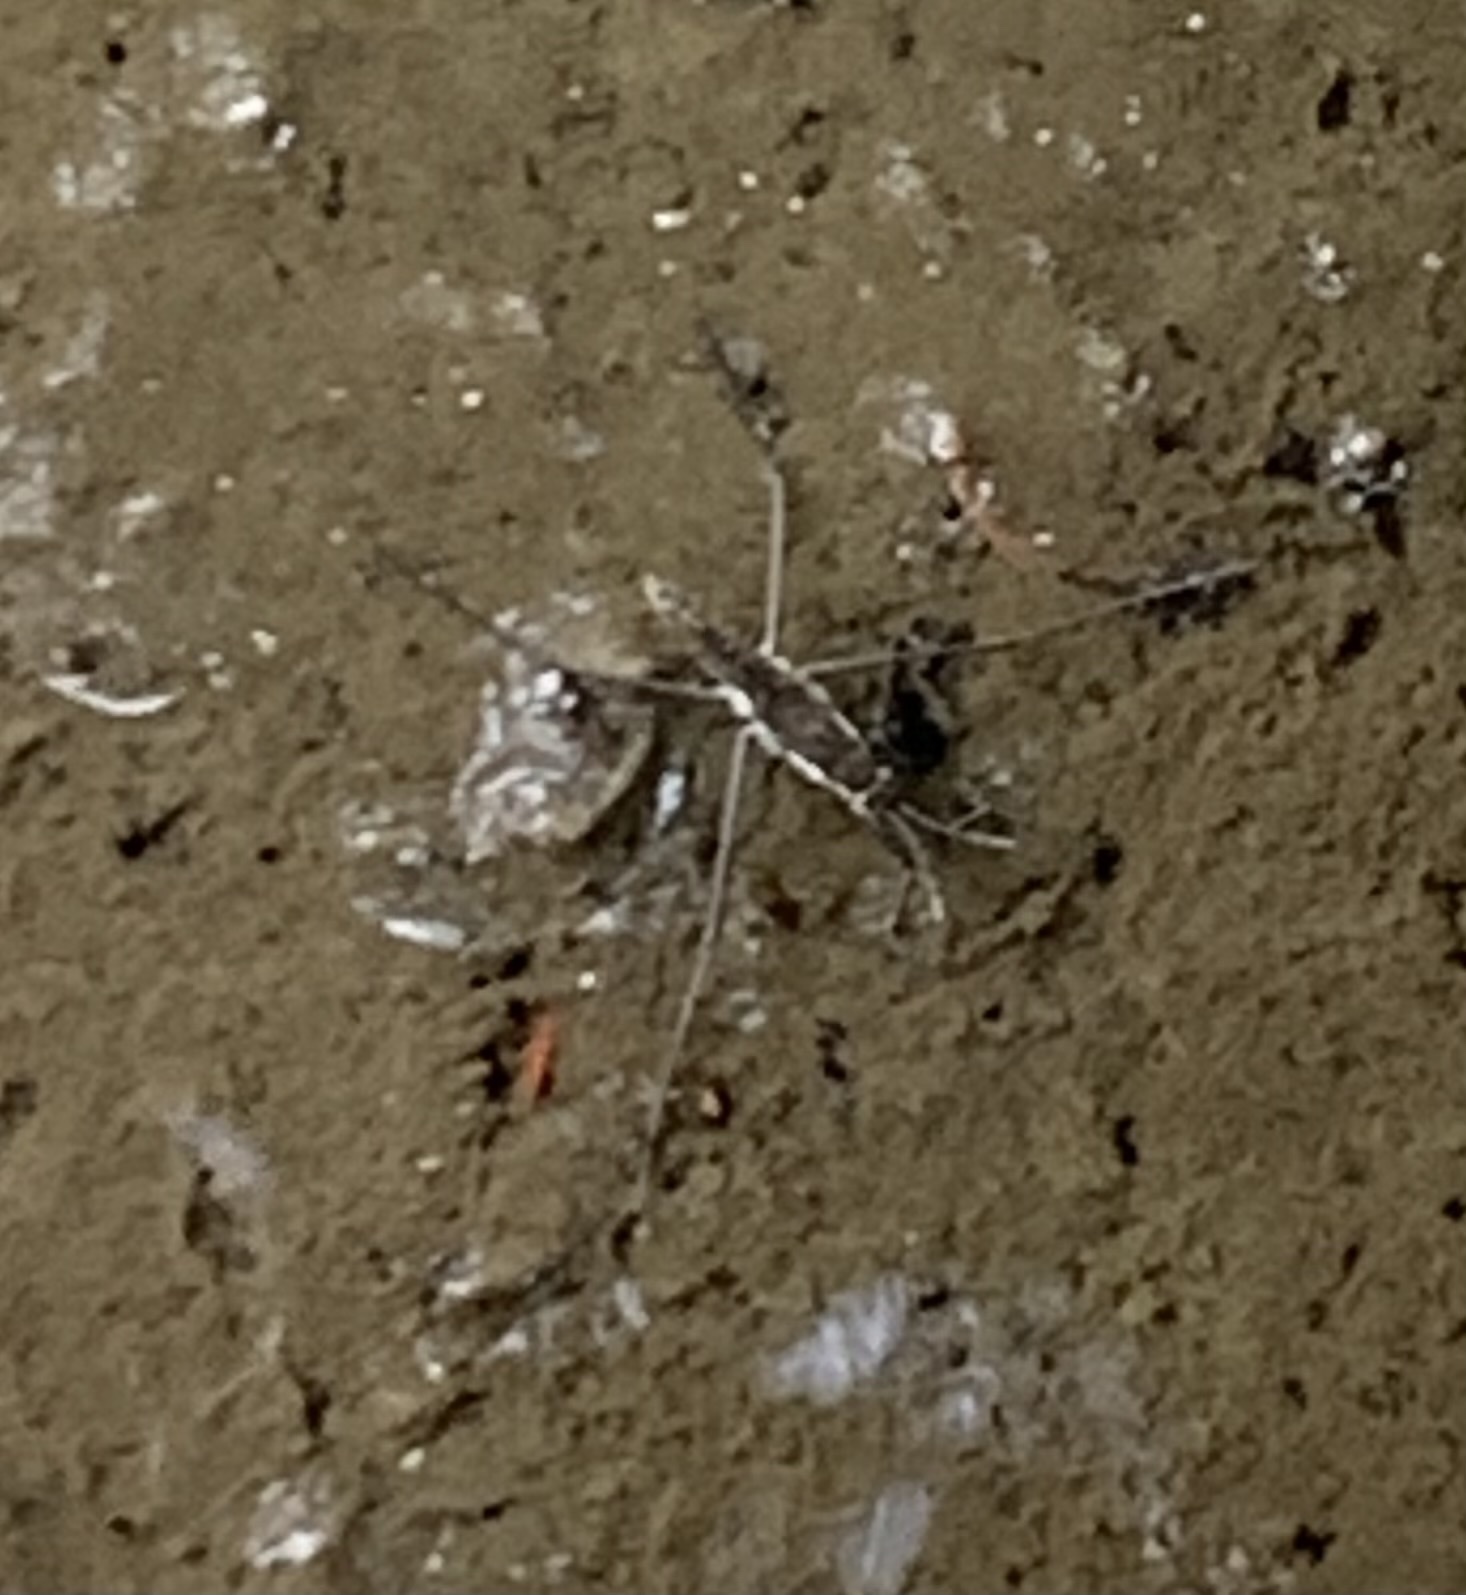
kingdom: Animalia
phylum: Arthropoda
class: Insecta
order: Hemiptera
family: Gerridae
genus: Aquarius
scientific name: Aquarius remigis
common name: Common water strider
